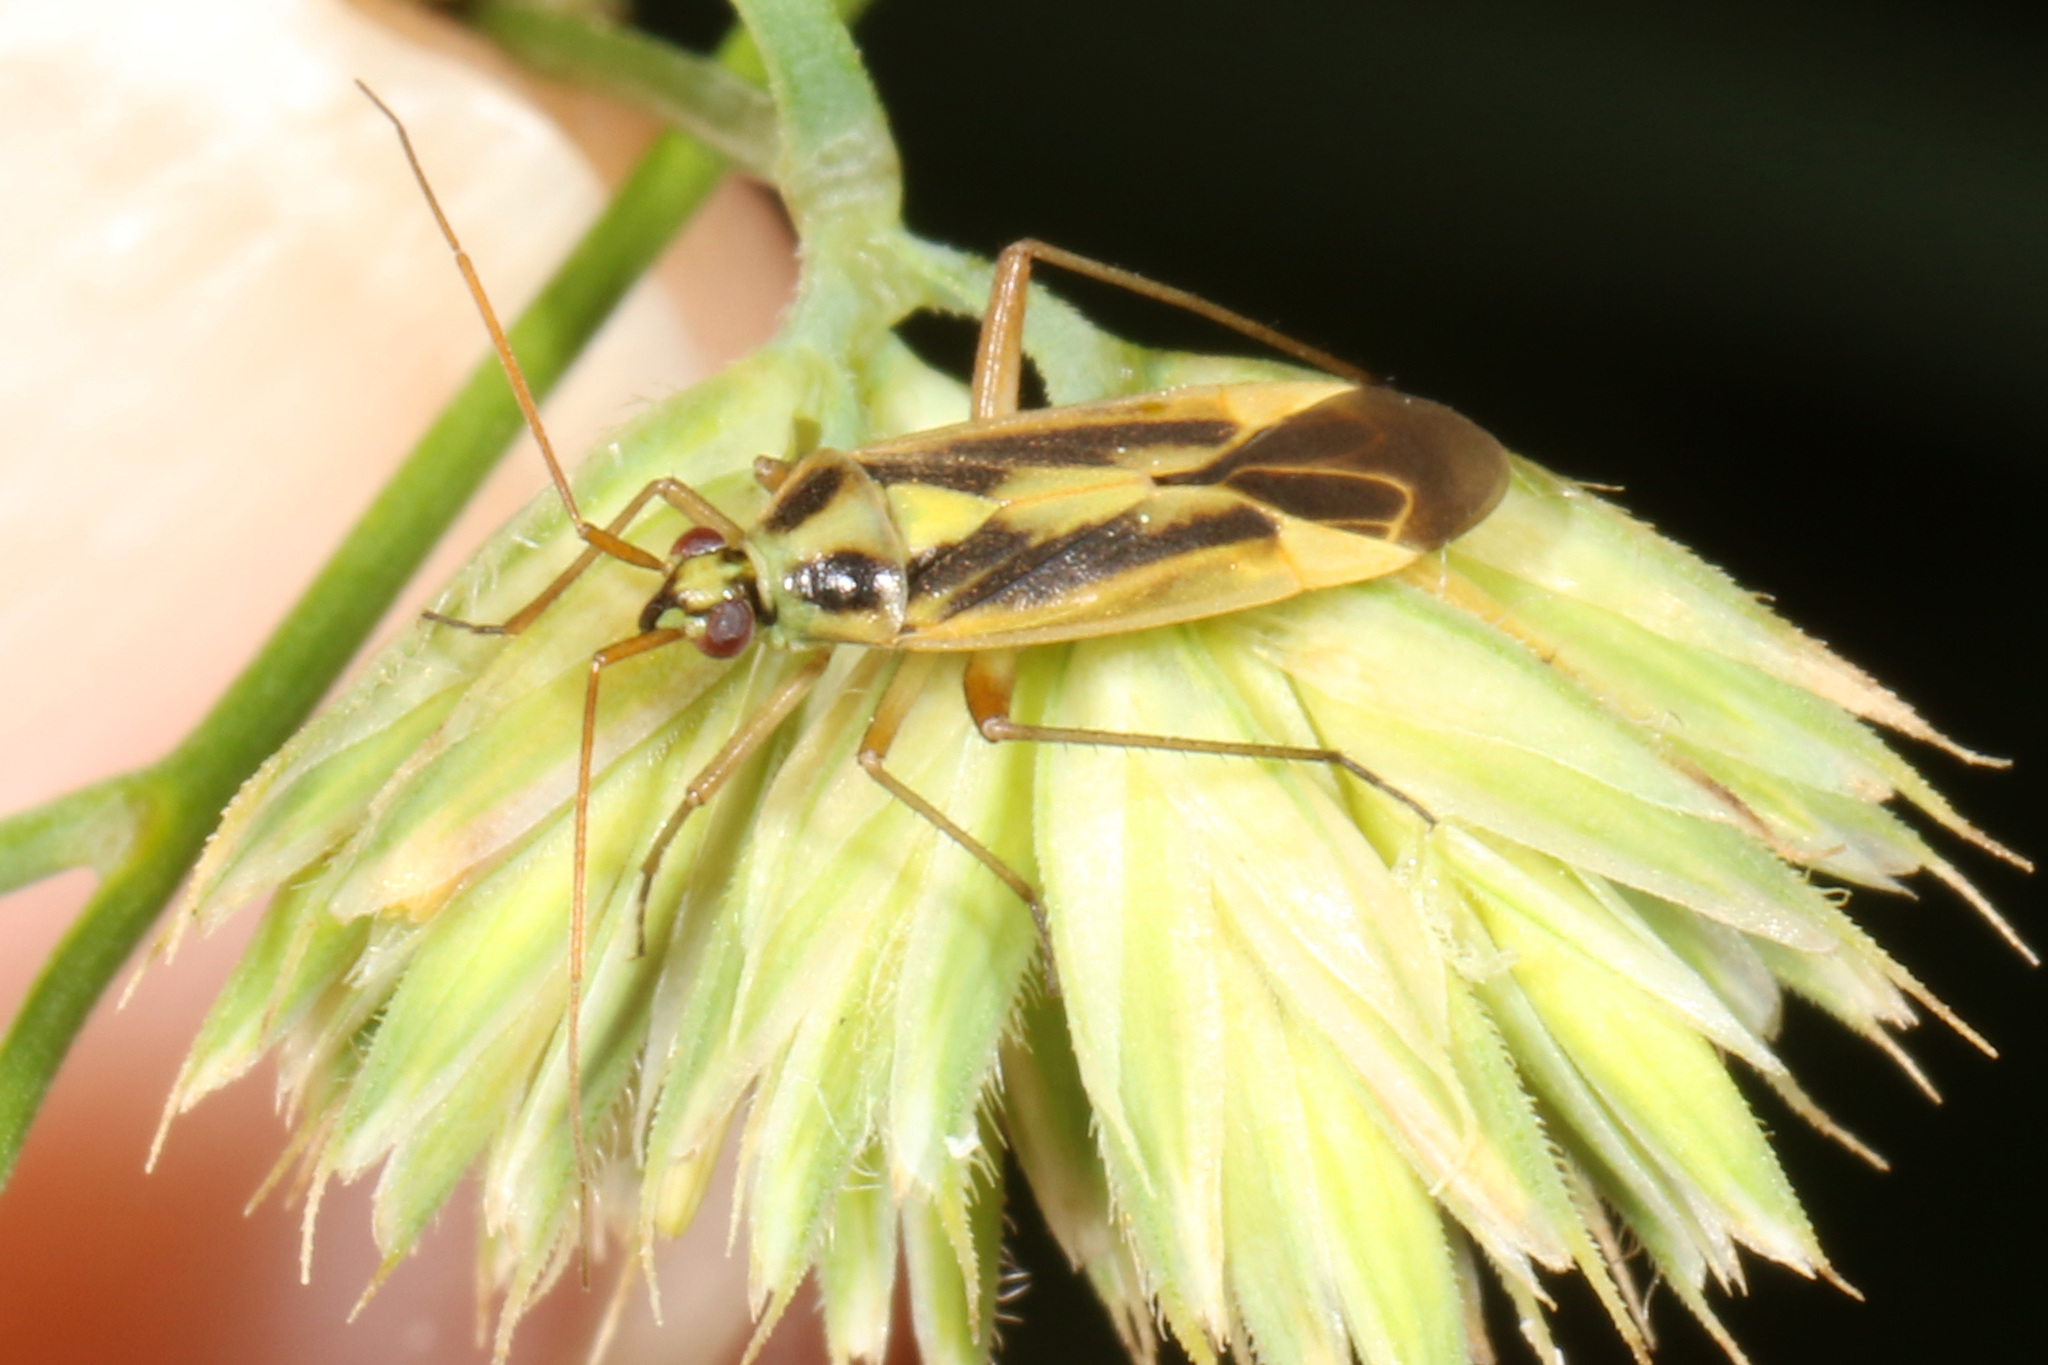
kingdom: Animalia
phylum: Arthropoda
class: Insecta
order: Hemiptera
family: Miridae
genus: Stenotus
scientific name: Stenotus binotatus
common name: Plant bug
